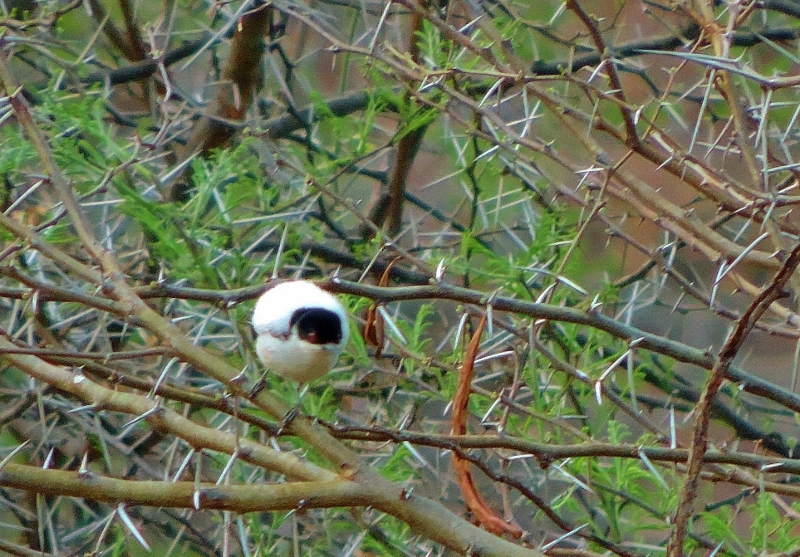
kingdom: Animalia
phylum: Chordata
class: Aves
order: Passeriformes
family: Malaconotidae
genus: Dryoscopus
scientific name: Dryoscopus cubla
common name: Black-backed puffback
